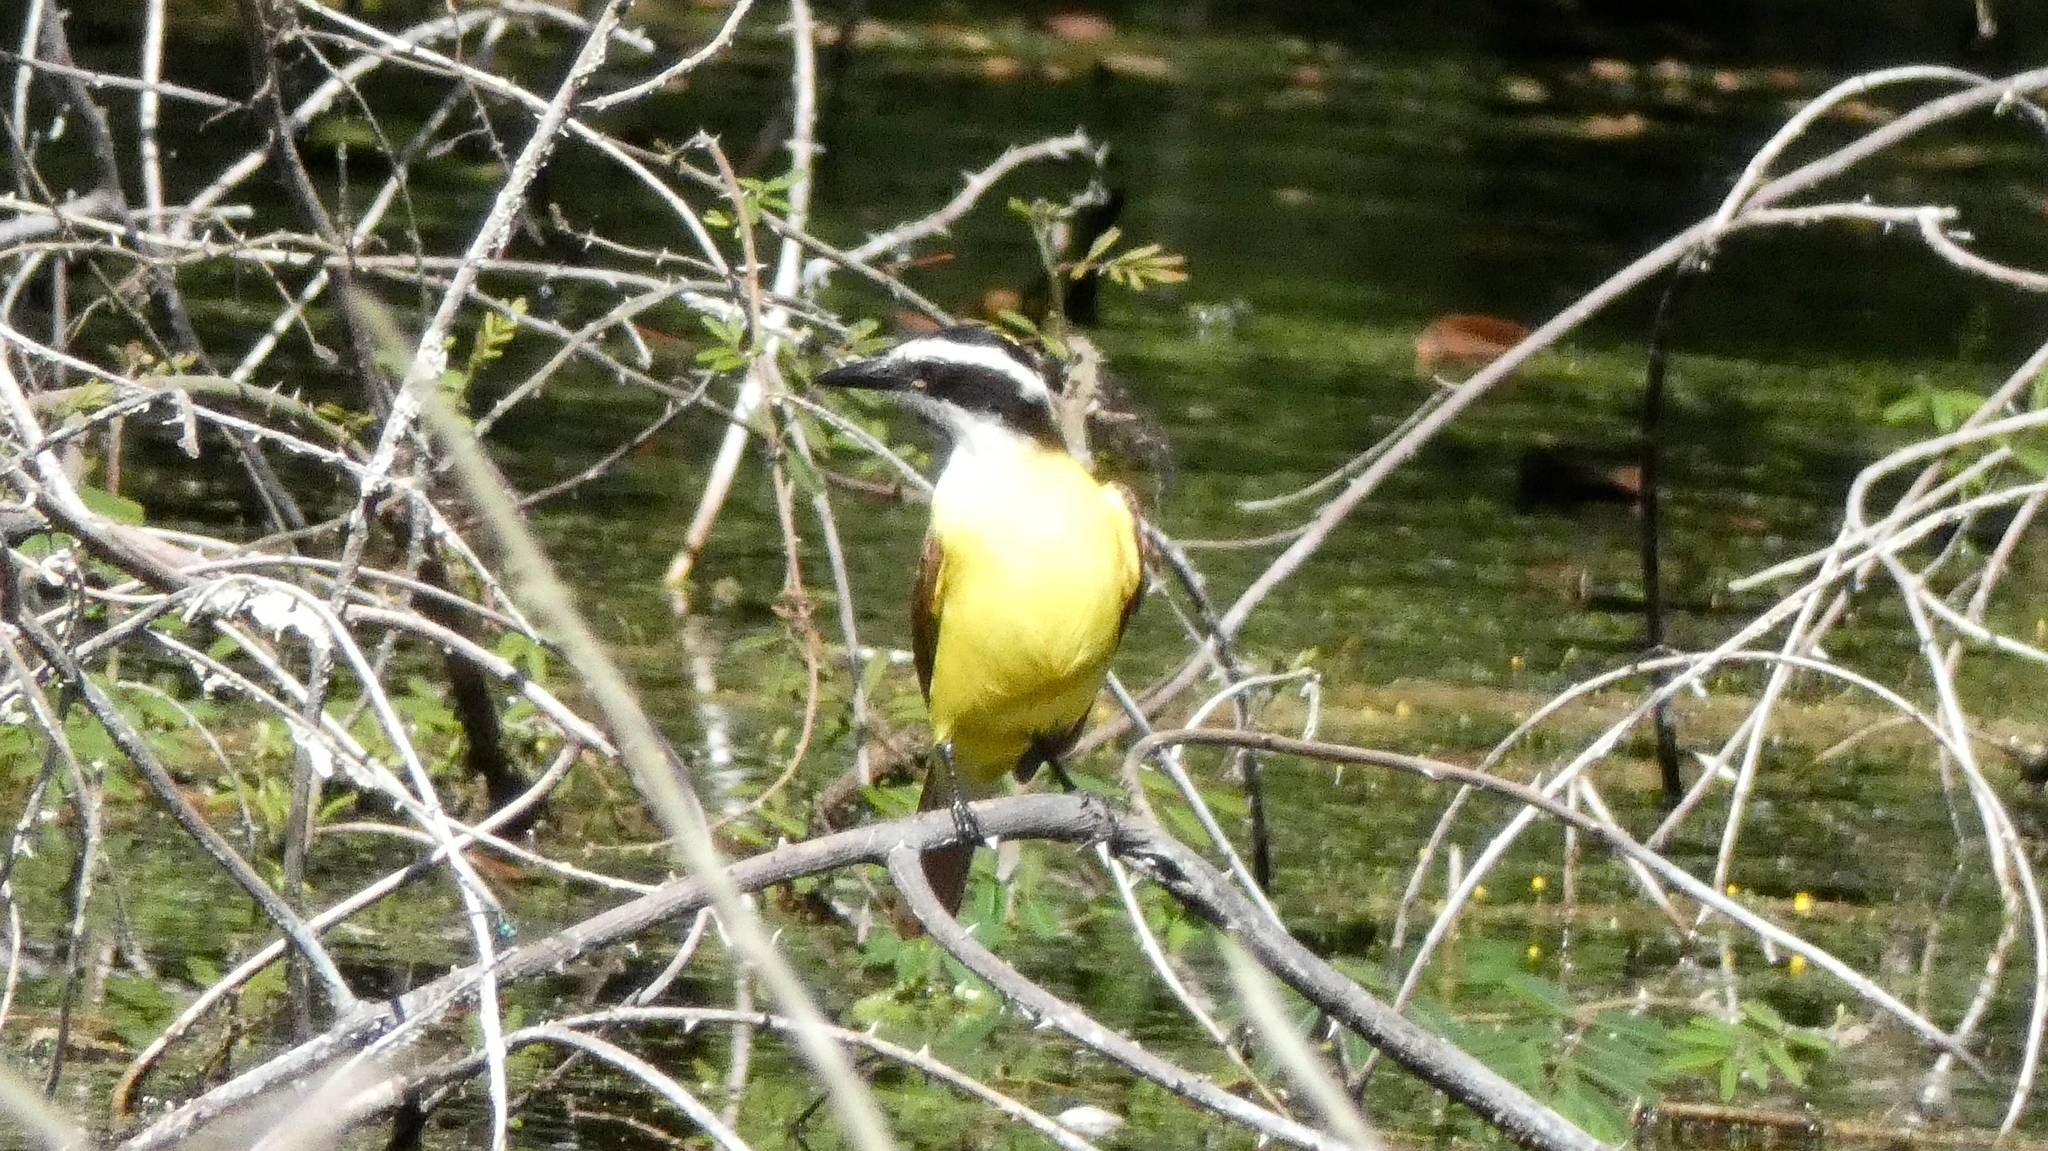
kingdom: Animalia
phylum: Chordata
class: Aves
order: Passeriformes
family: Tyrannidae
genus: Pitangus
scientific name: Pitangus sulphuratus
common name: Great kiskadee
